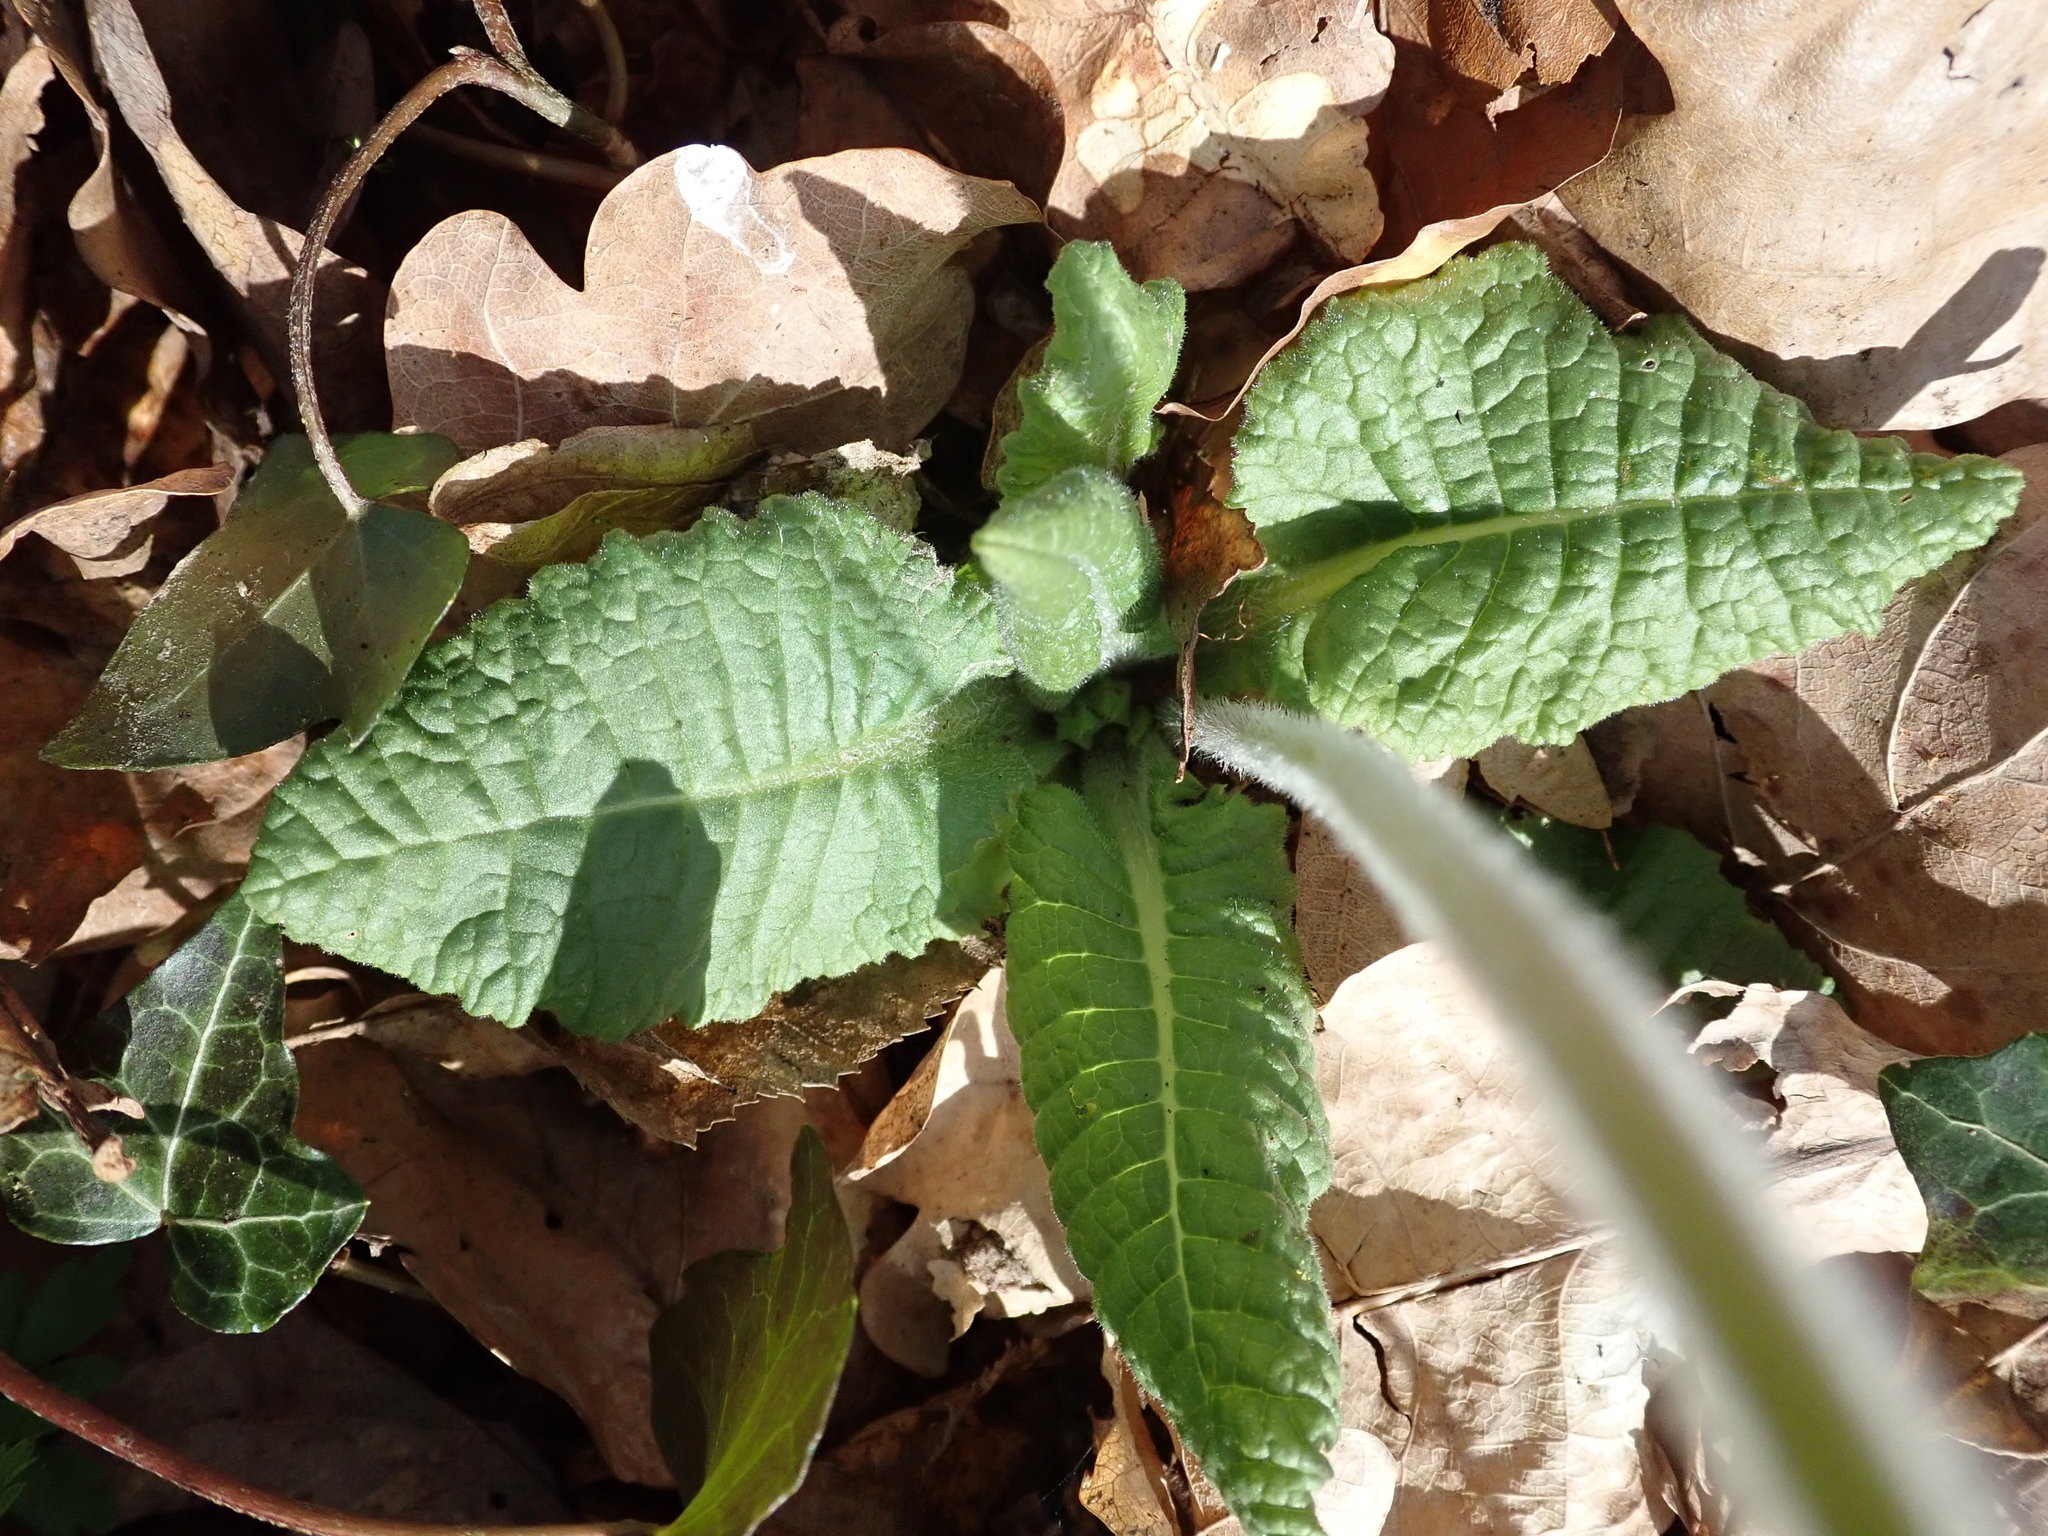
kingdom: Plantae
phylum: Tracheophyta
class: Magnoliopsida
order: Ericales
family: Primulaceae
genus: Primula
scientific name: Primula elatior
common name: Oxlip
